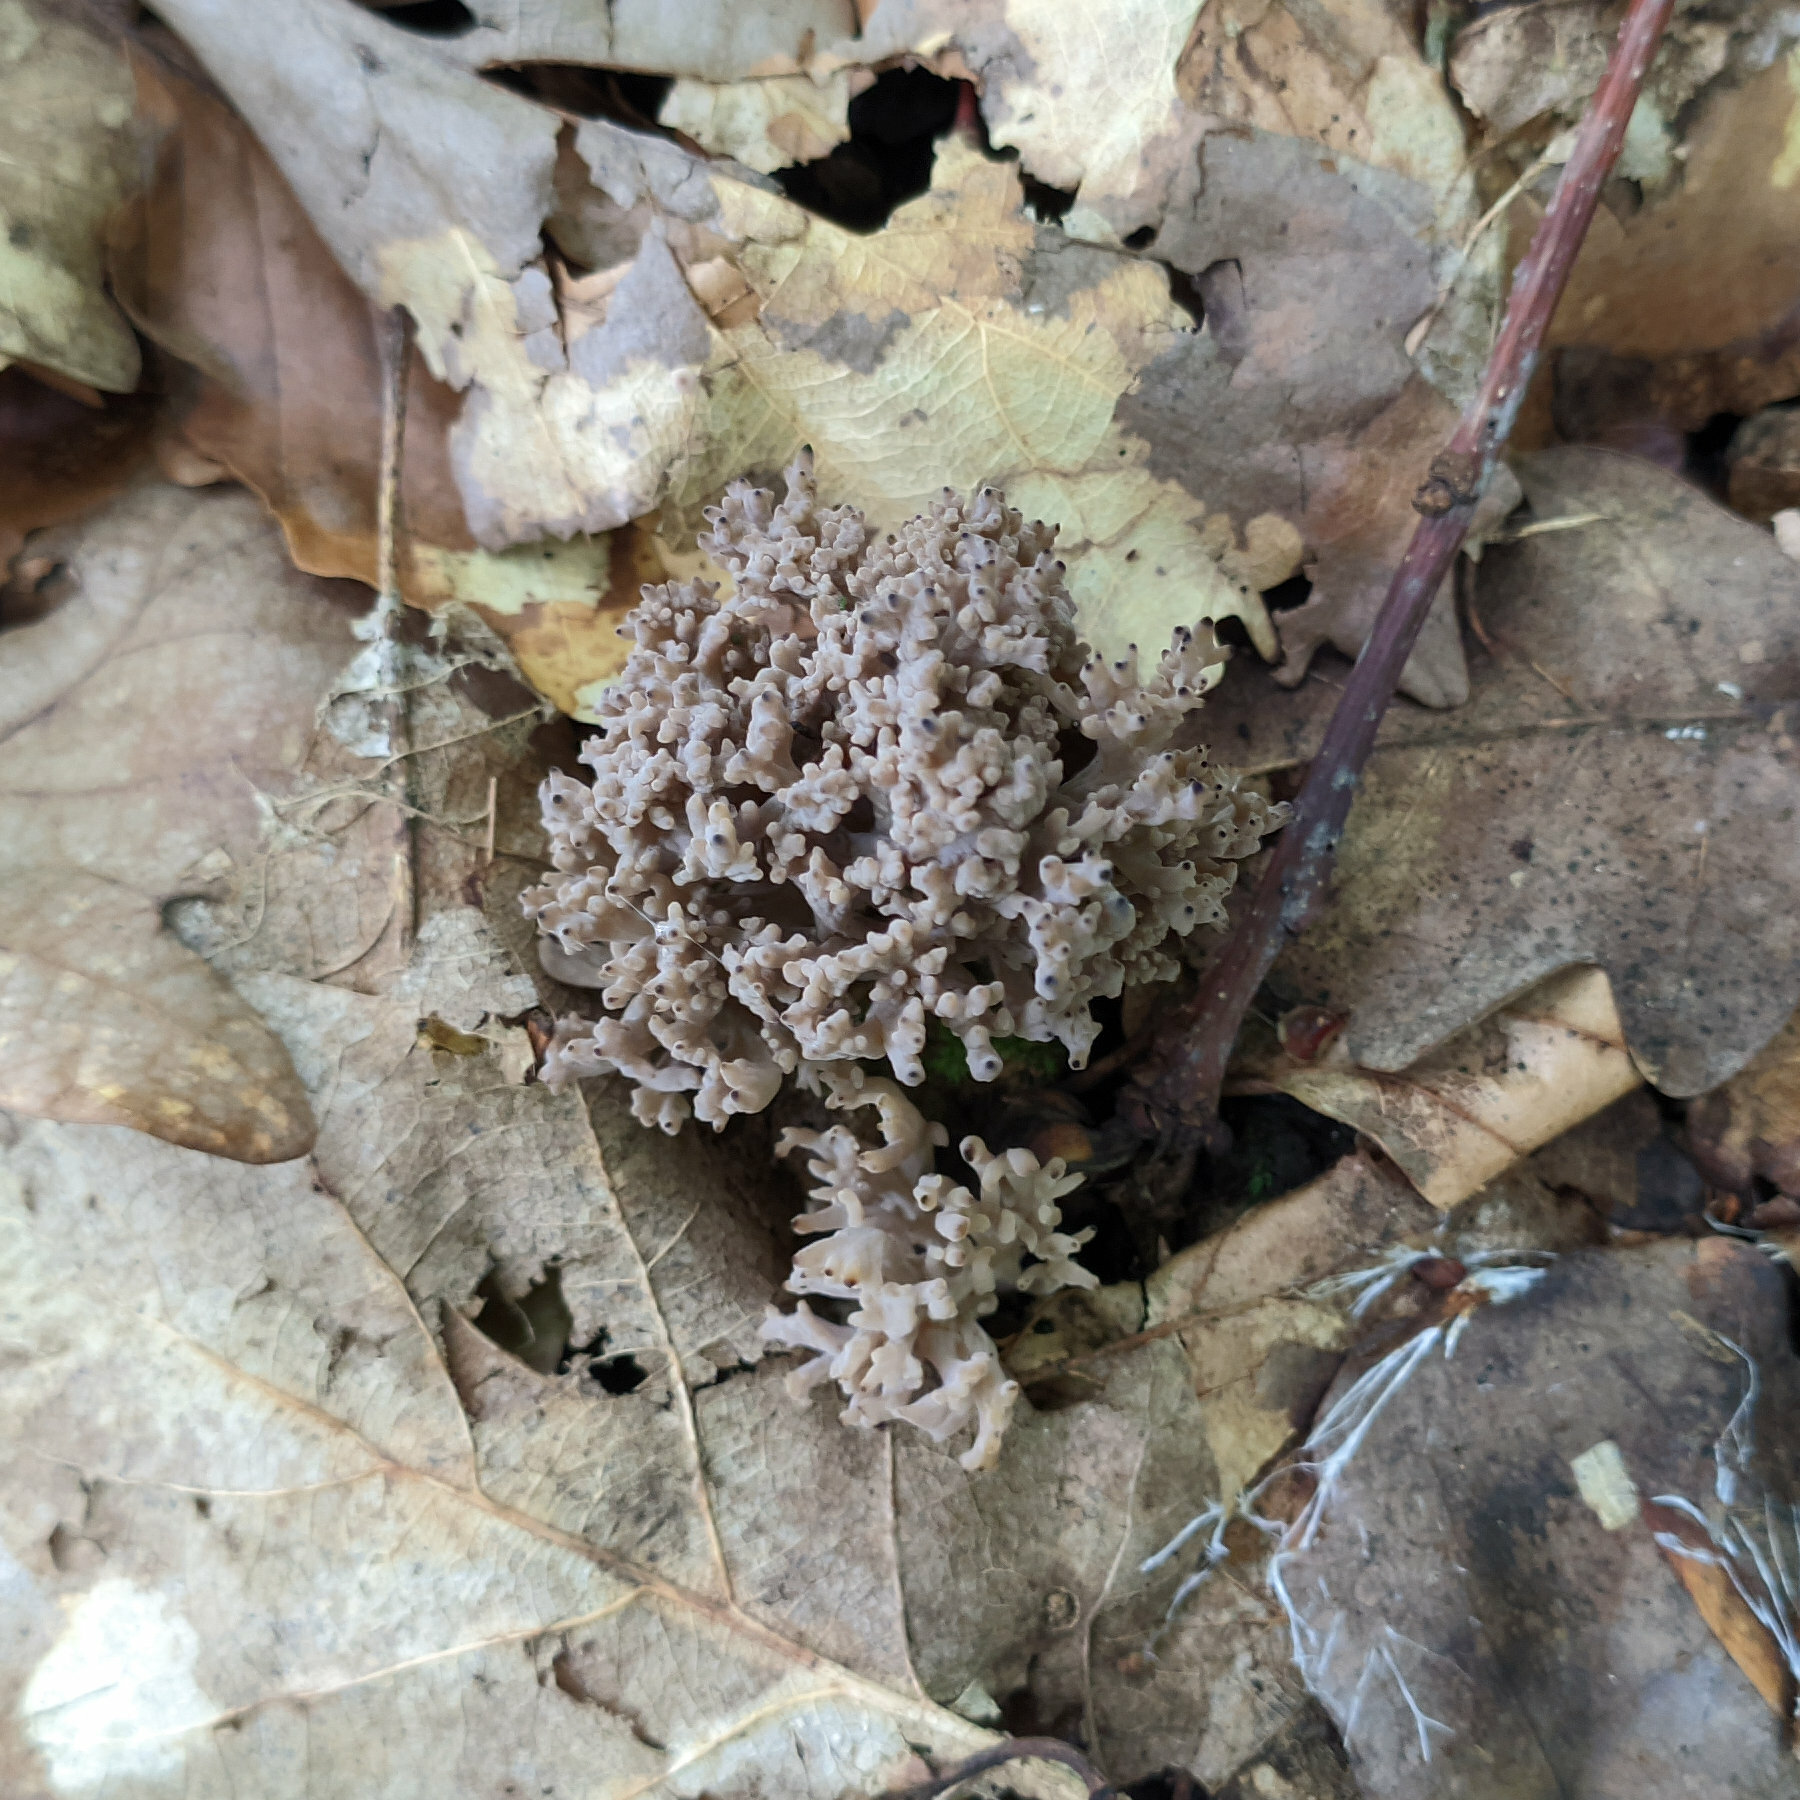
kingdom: Fungi
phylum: Basidiomycota
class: Agaricomycetes
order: Cantharellales
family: Hydnaceae
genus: Clavulina
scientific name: Clavulina cinerea
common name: Grey coral
